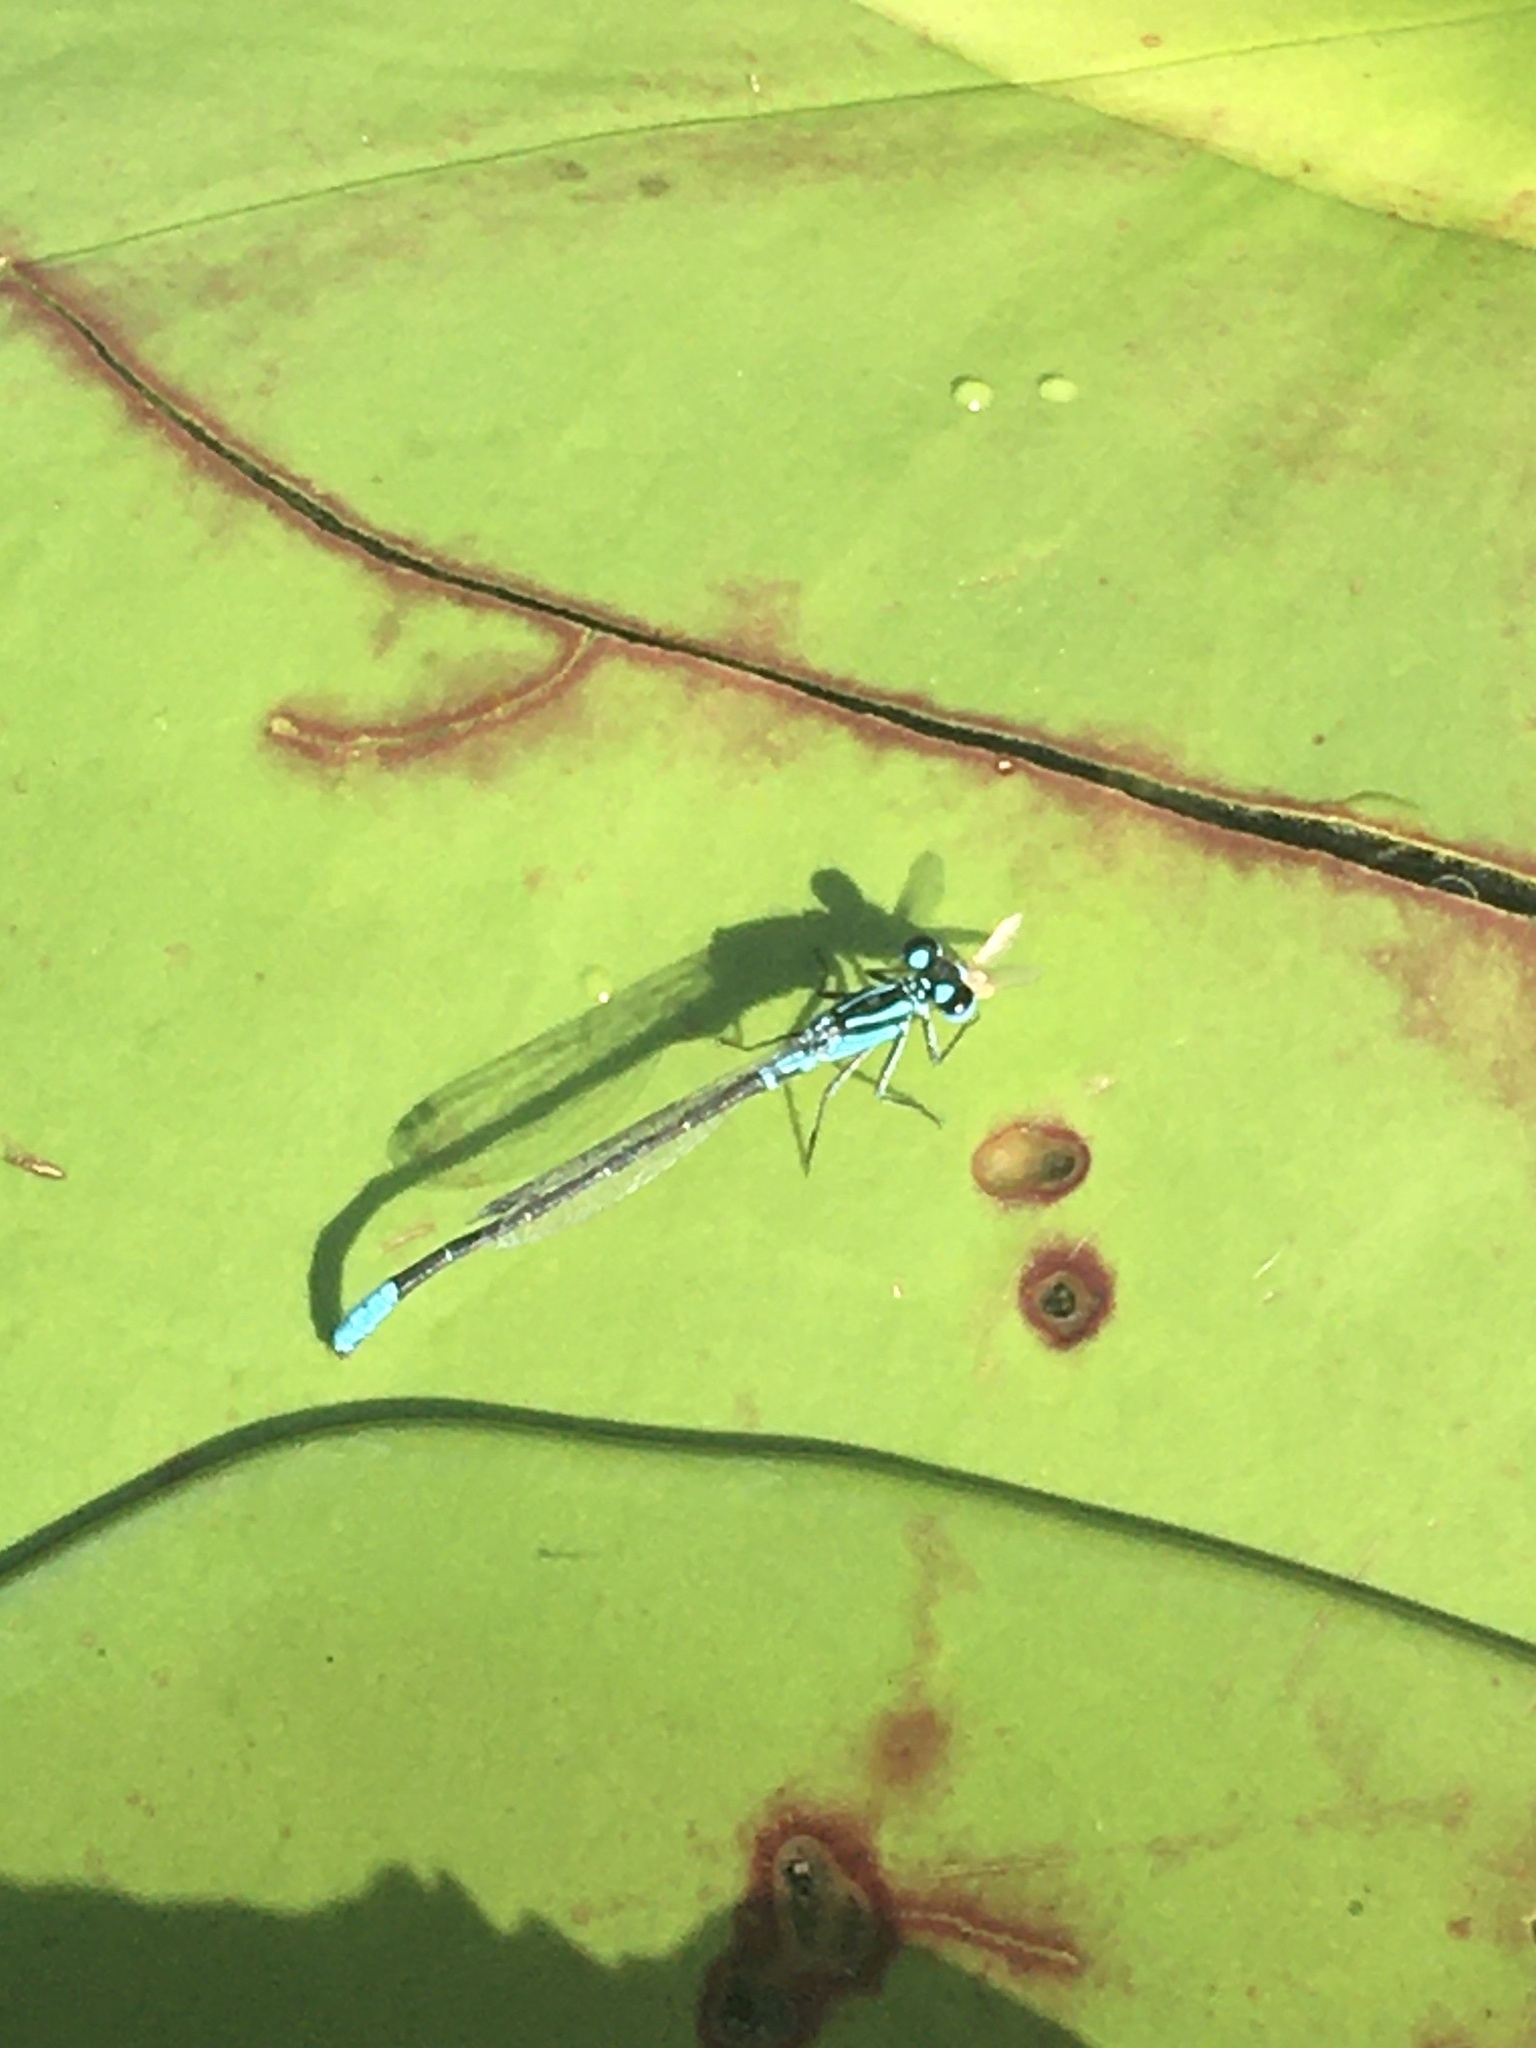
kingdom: Animalia
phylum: Arthropoda
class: Insecta
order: Odonata
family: Coenagrionidae
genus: Ischnura
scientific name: Ischnura kellicotti
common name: Lilypad forktail
